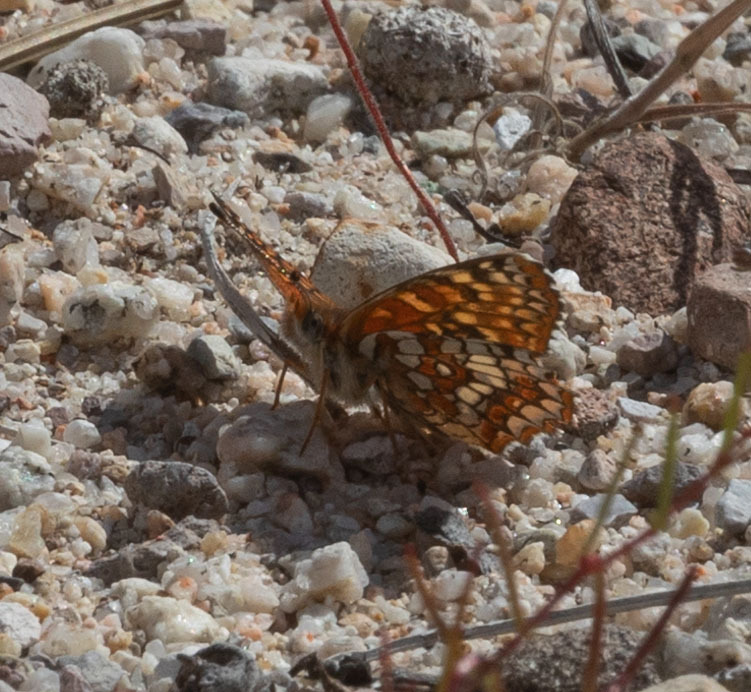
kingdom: Animalia
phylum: Arthropoda
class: Insecta
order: Lepidoptera
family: Nymphalidae
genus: Chlosyne
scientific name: Chlosyne gabbii
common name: Gabb's checkerspot
